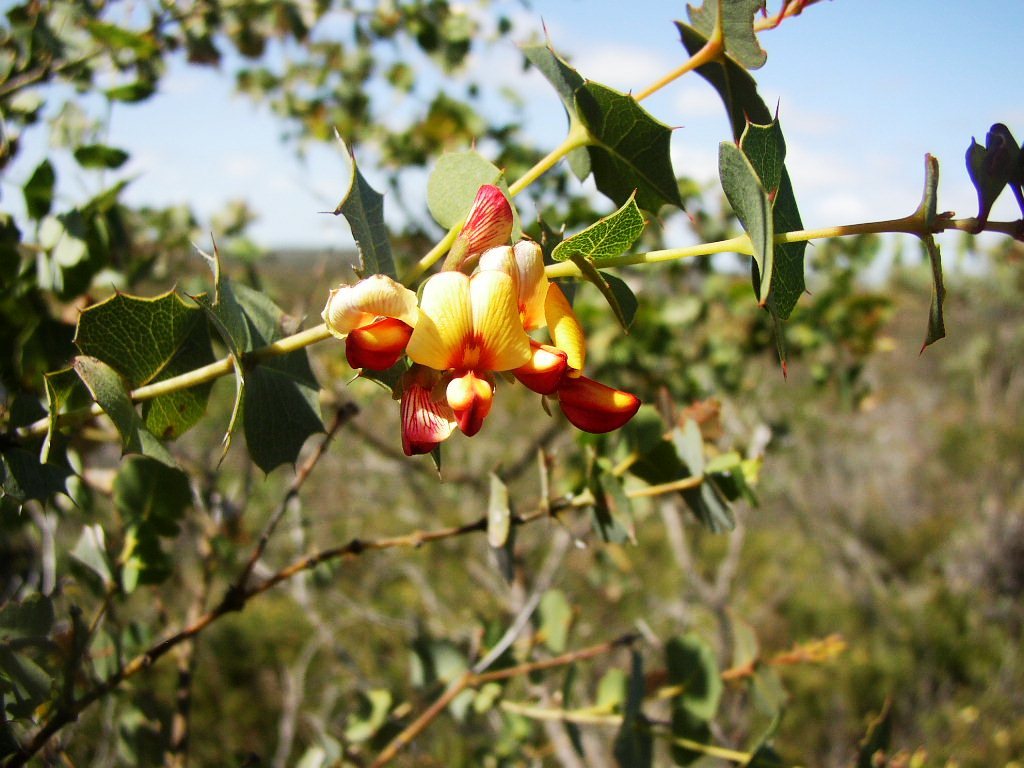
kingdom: Plantae
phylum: Tracheophyta
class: Magnoliopsida
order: Fabales
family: Fabaceae
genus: Gastrolobium
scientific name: Gastrolobium spinosum
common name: Prickly poison
